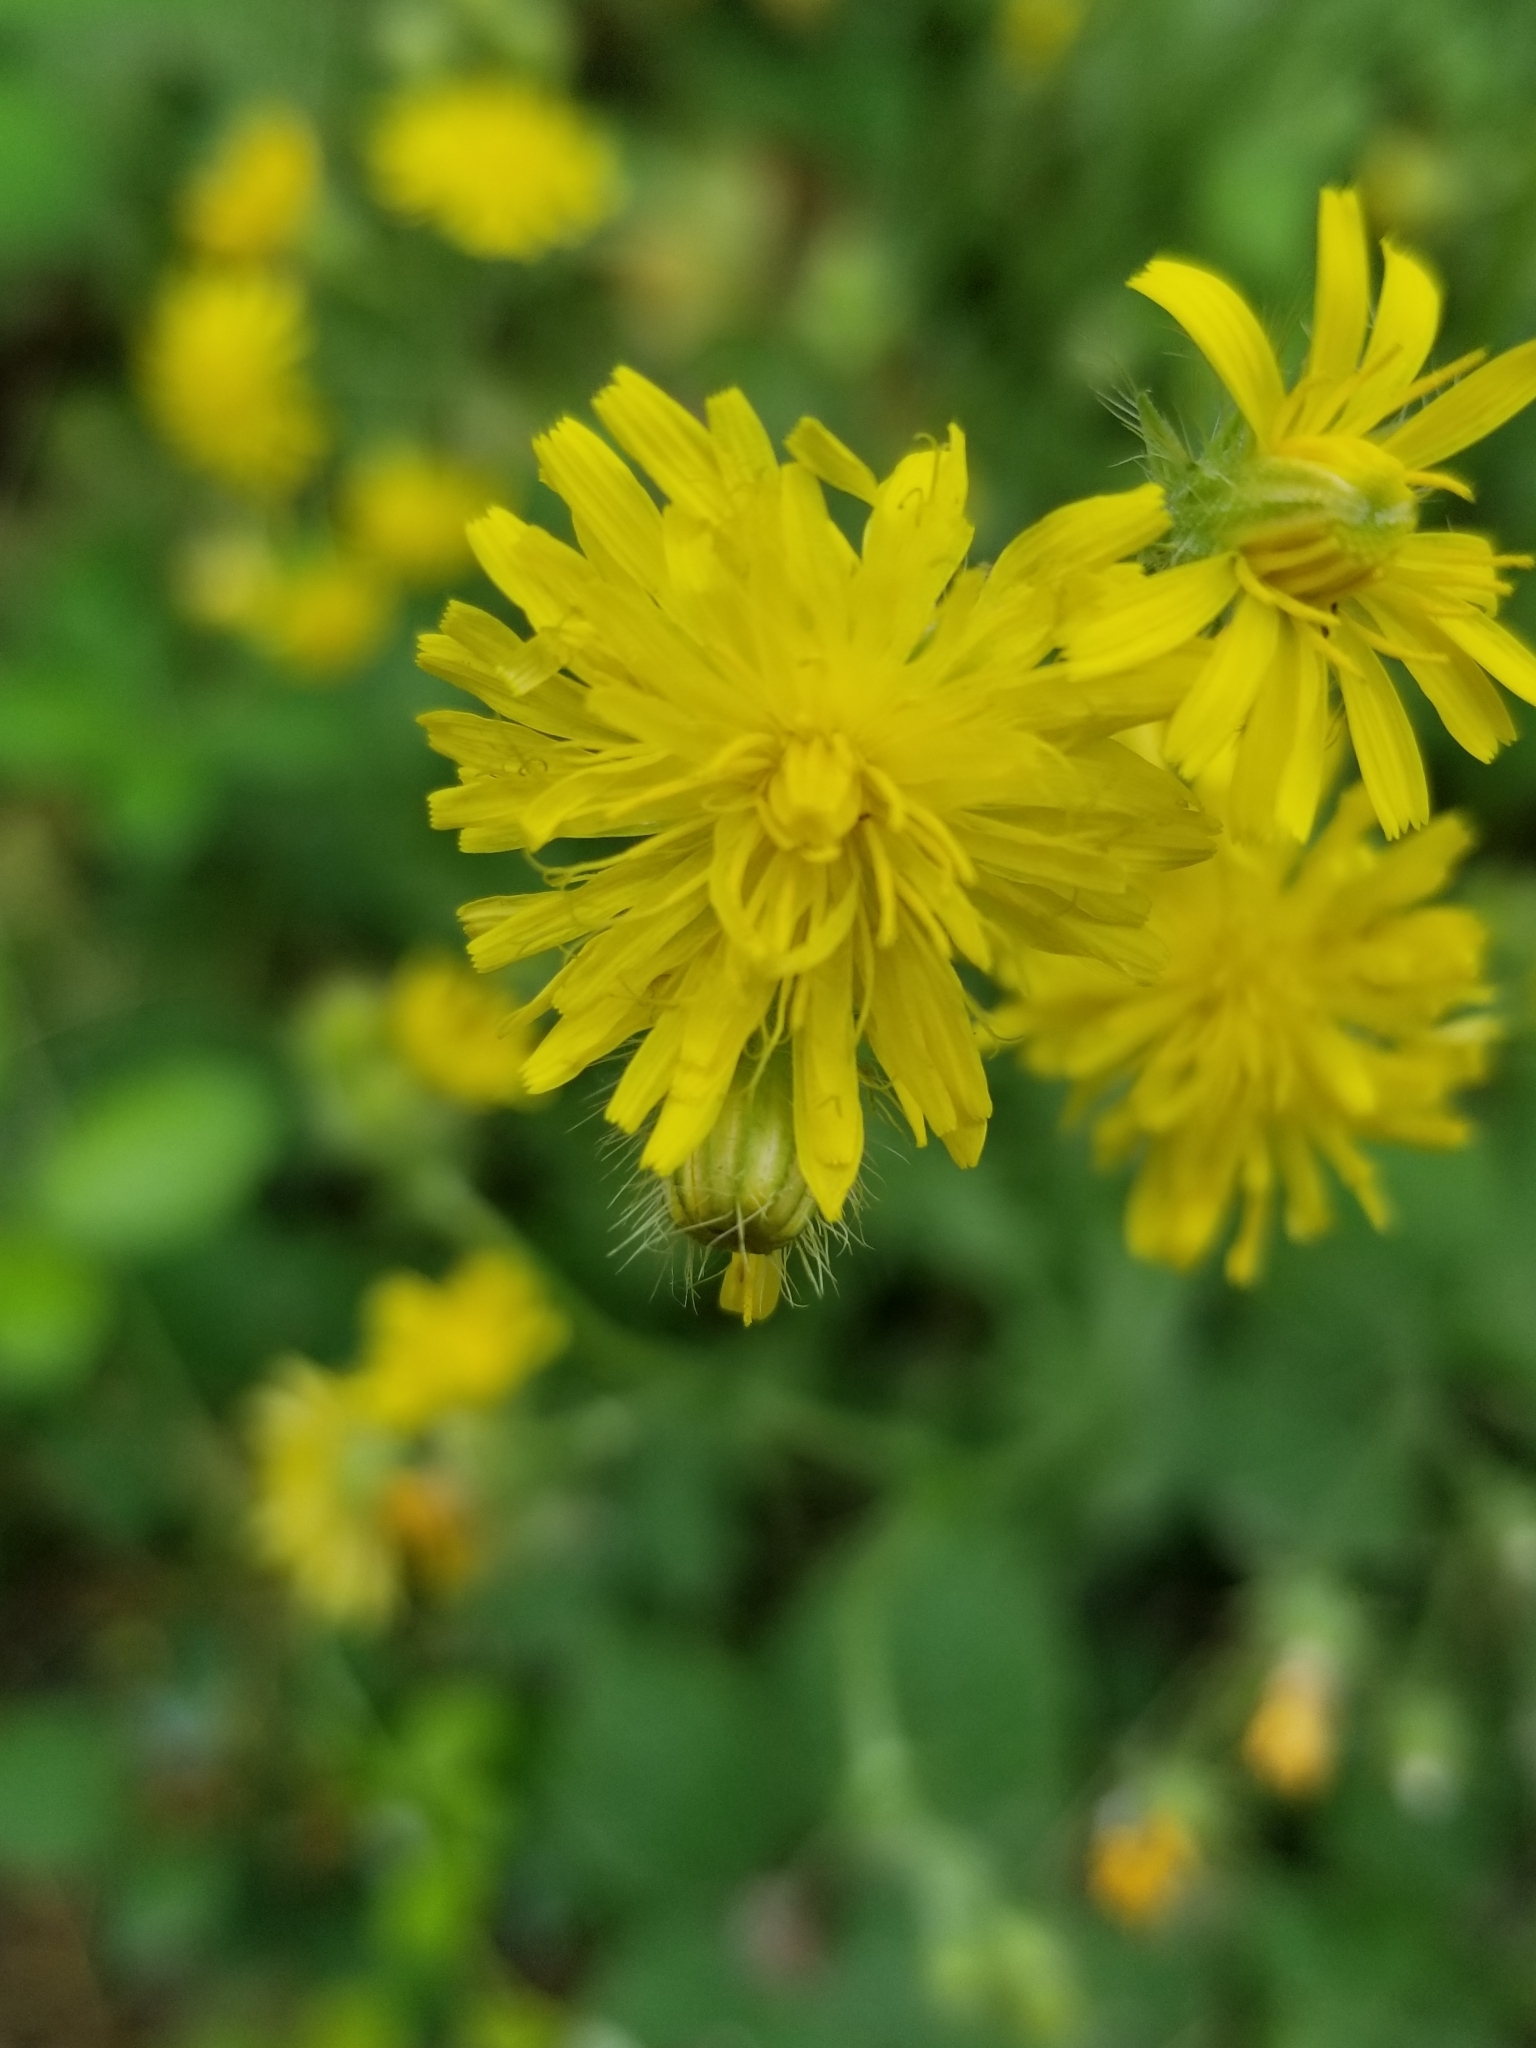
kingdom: Plantae
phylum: Tracheophyta
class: Magnoliopsida
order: Asterales
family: Asteraceae
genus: Crepis
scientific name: Crepis setosa
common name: Bristly hawk's-beard
